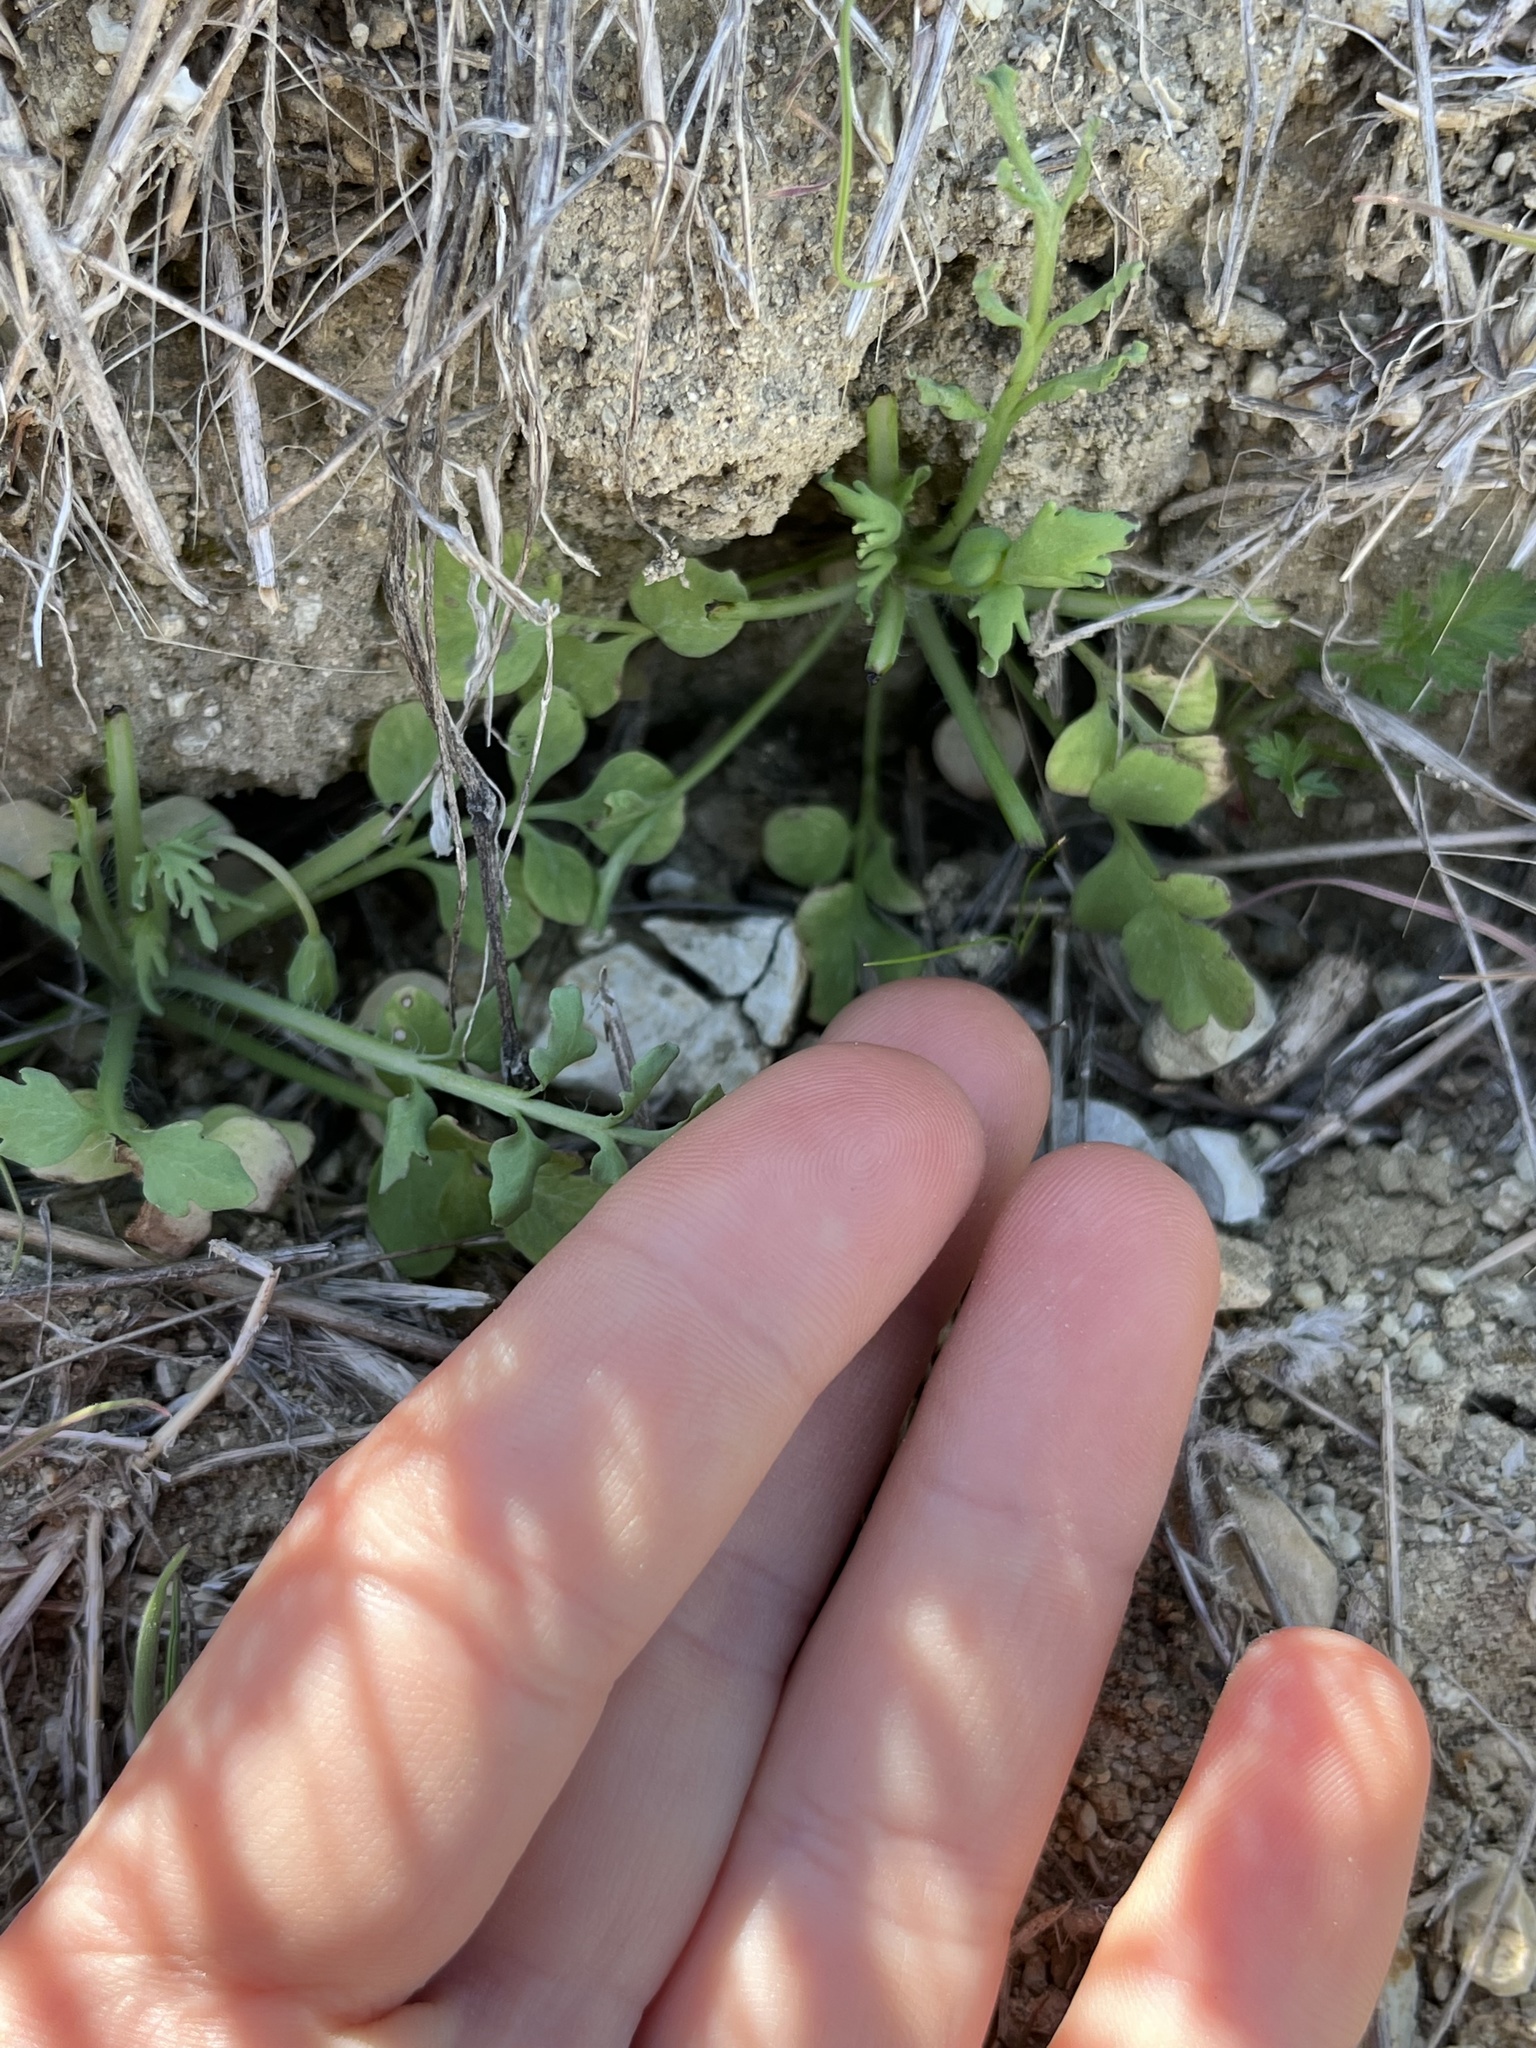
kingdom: Plantae
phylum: Tracheophyta
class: Magnoliopsida
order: Ranunculales
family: Papaveraceae
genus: Stylomecon
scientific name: Stylomecon heterophylla
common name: Flaming-poppy
